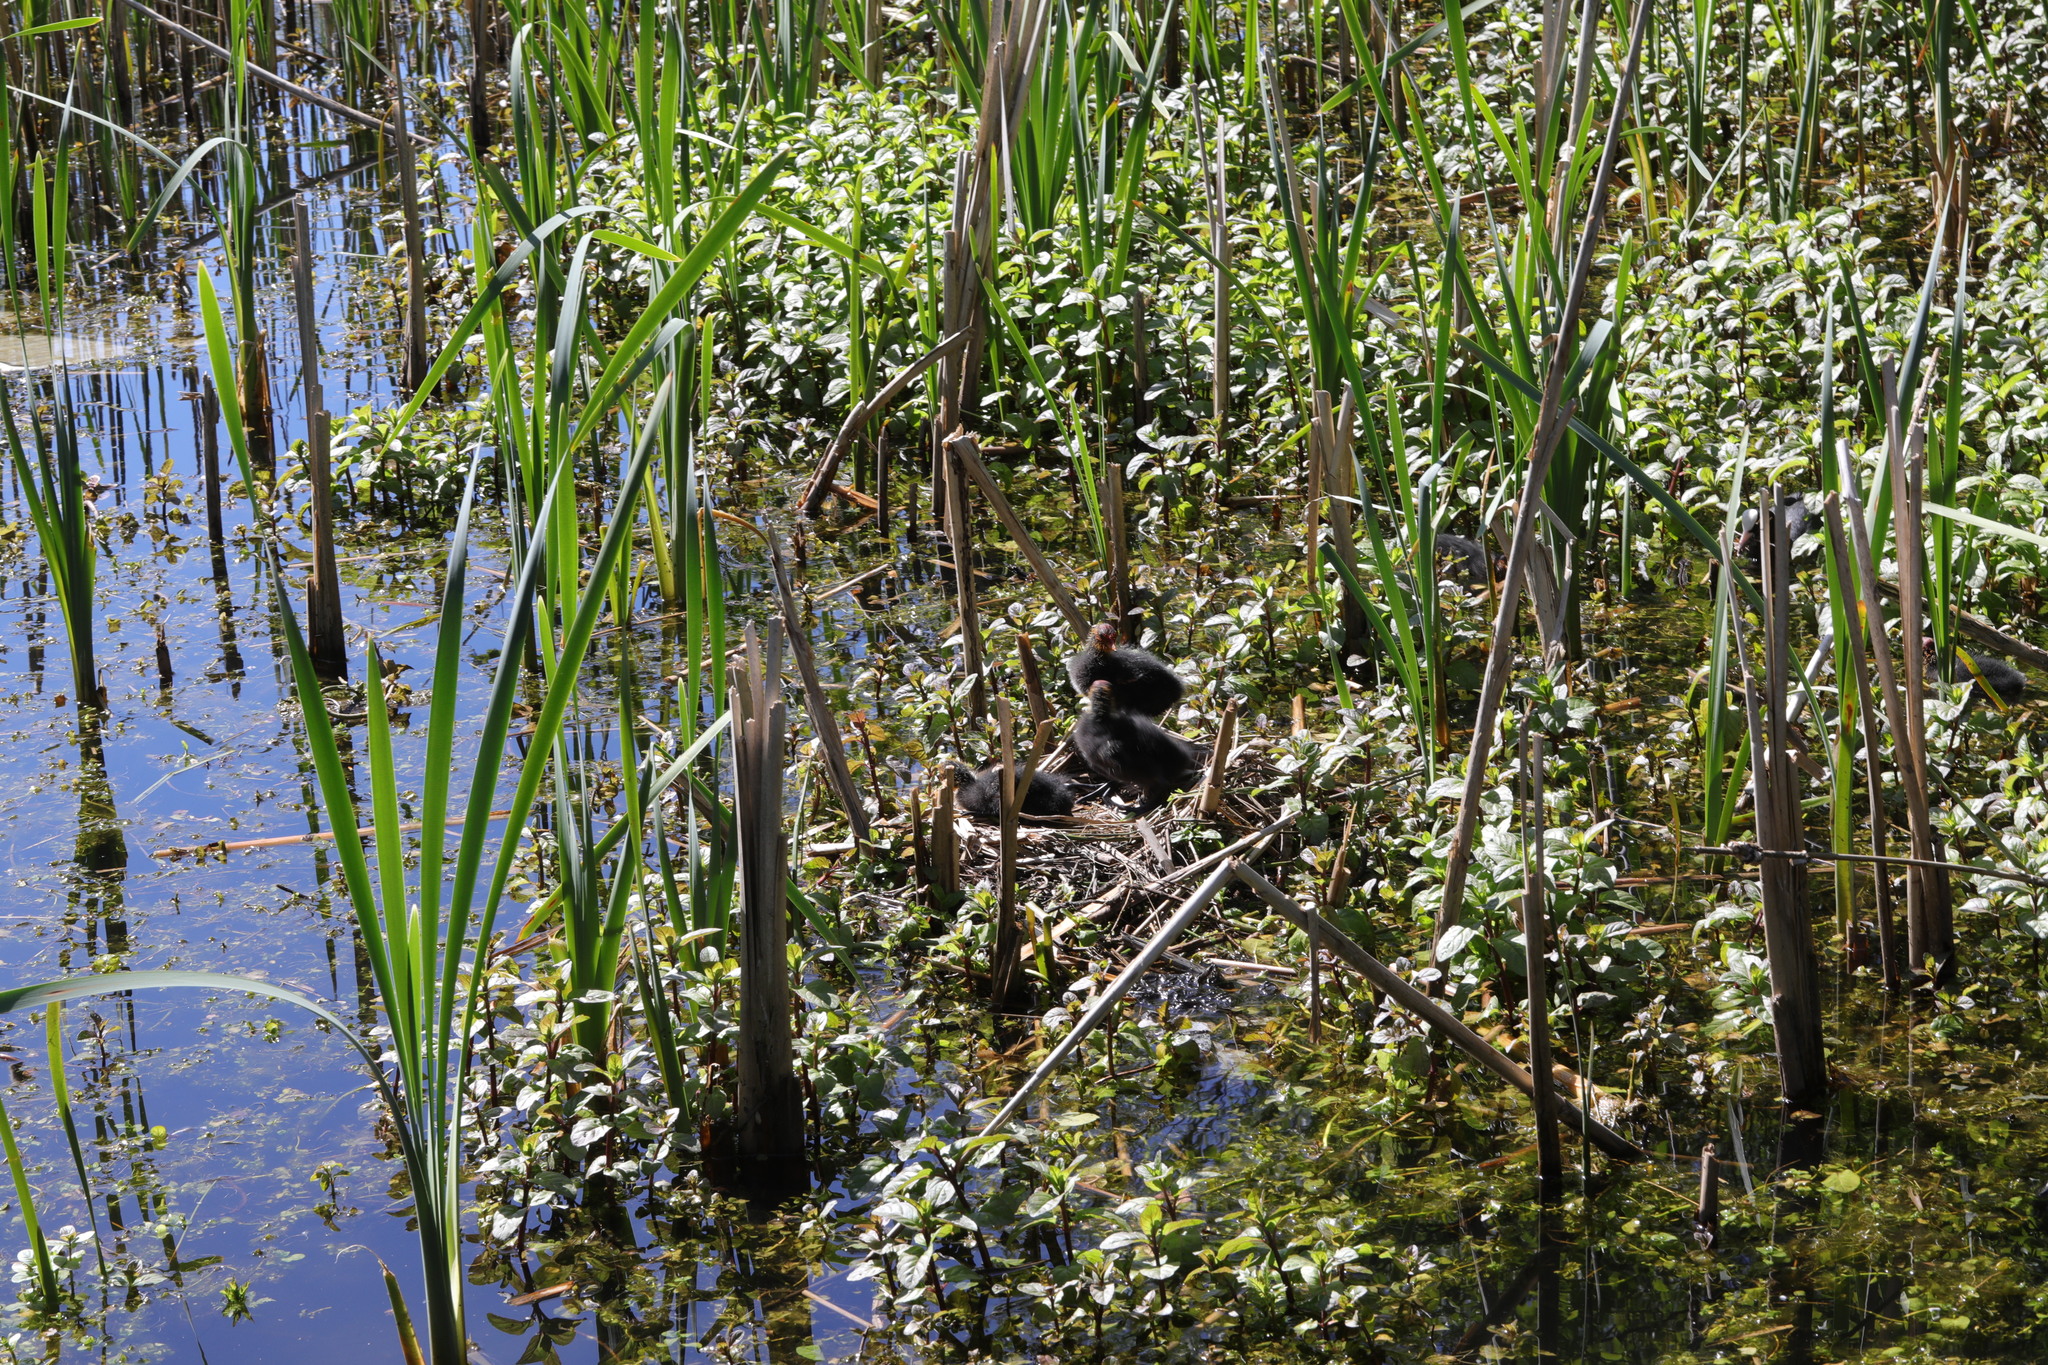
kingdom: Animalia
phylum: Chordata
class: Aves
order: Gruiformes
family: Rallidae
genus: Fulica
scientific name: Fulica atra
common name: Eurasian coot
